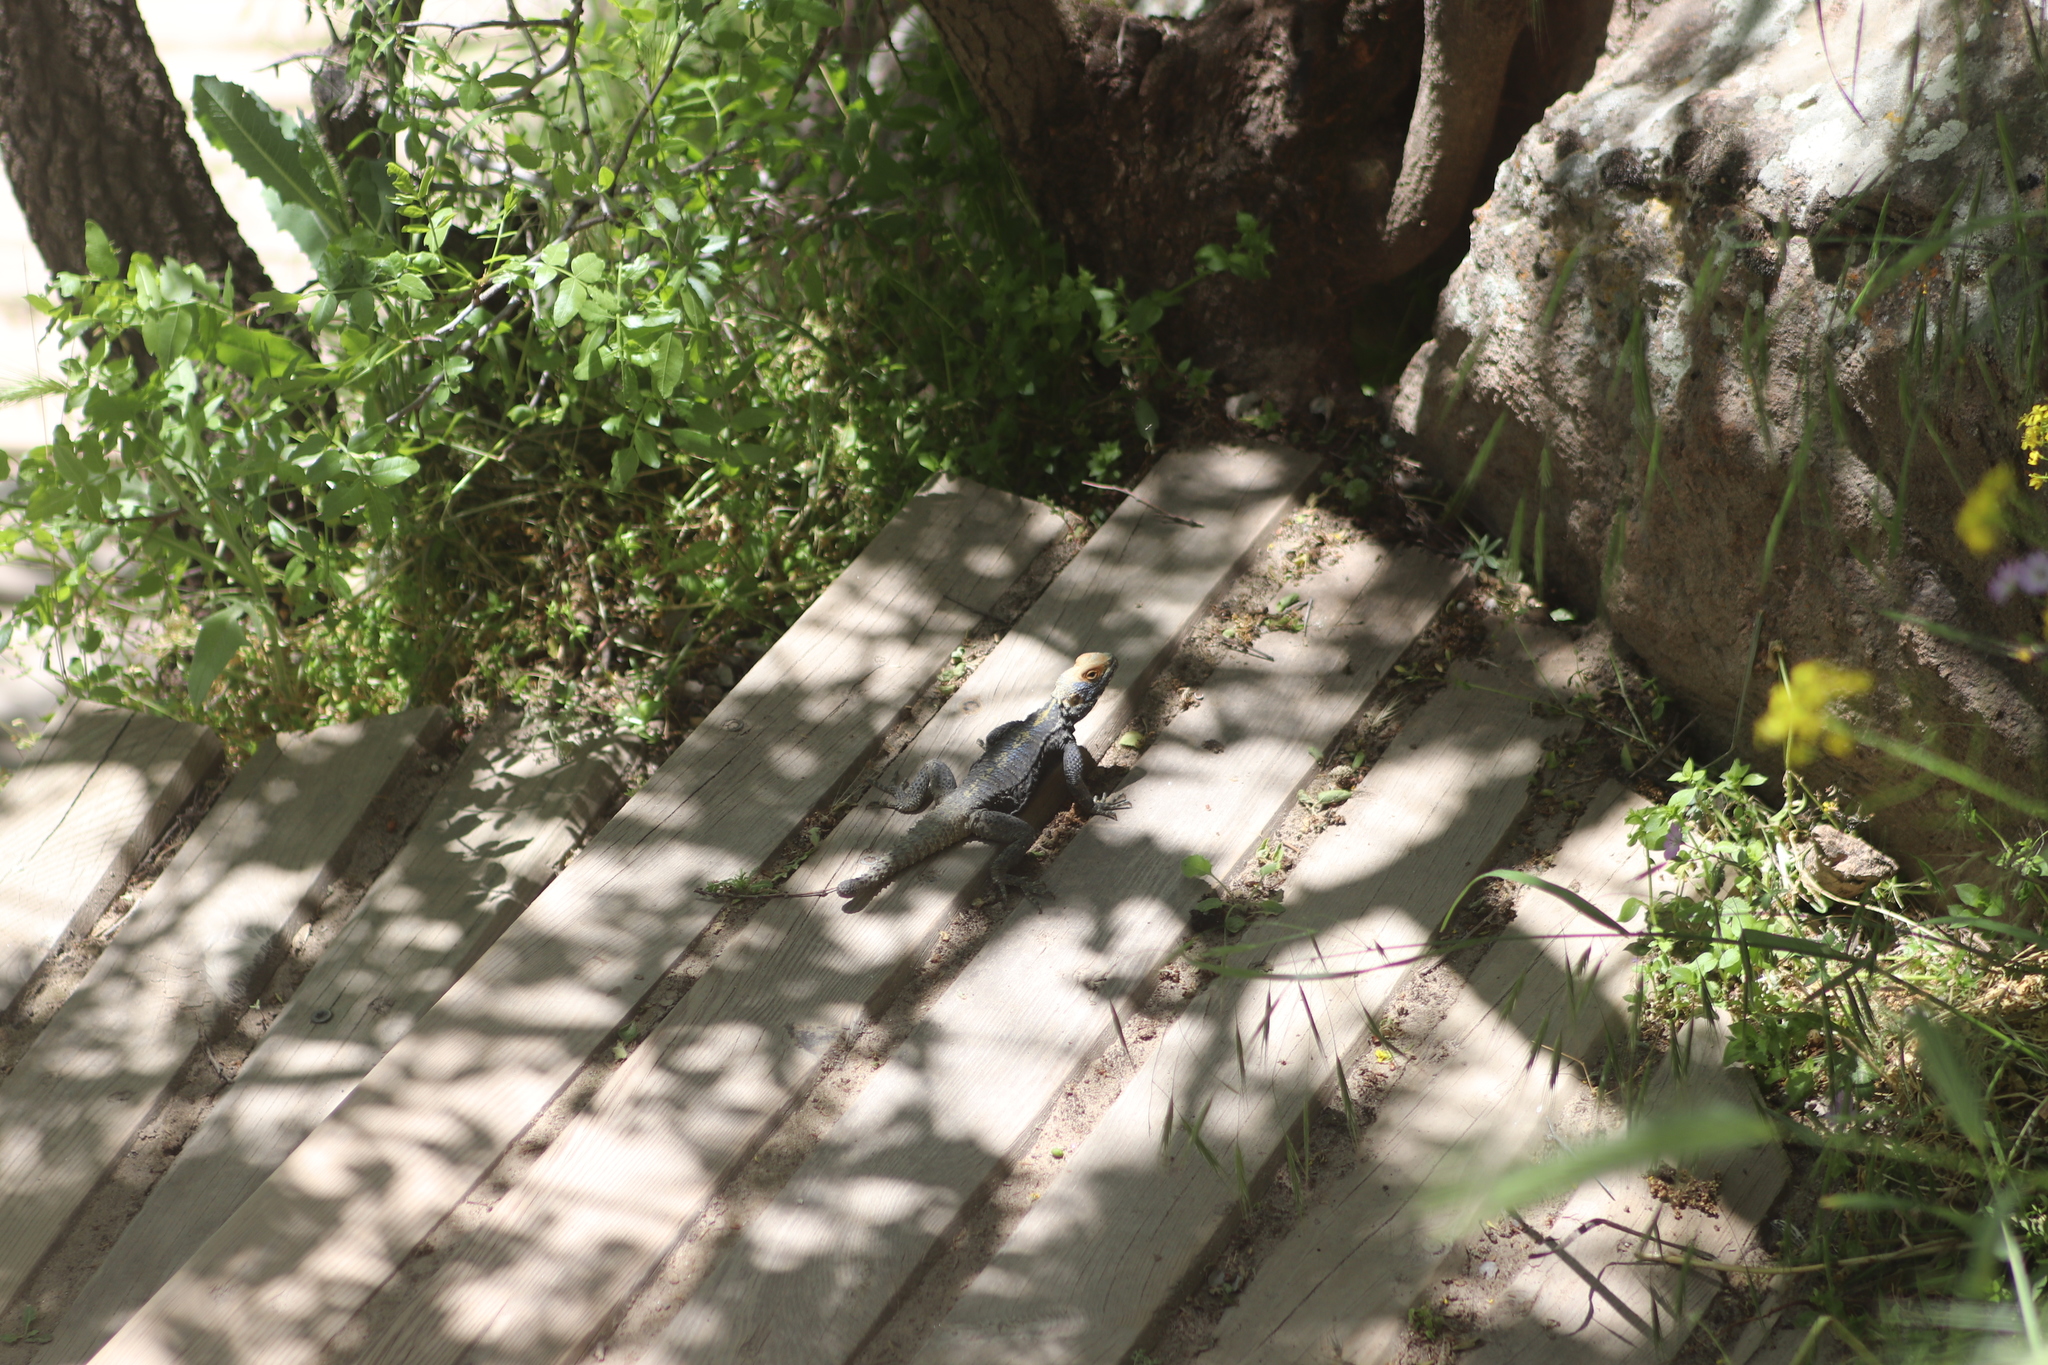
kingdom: Animalia
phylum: Chordata
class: Squamata
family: Agamidae
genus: Stellagama
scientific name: Stellagama stellio
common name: Starred agama
